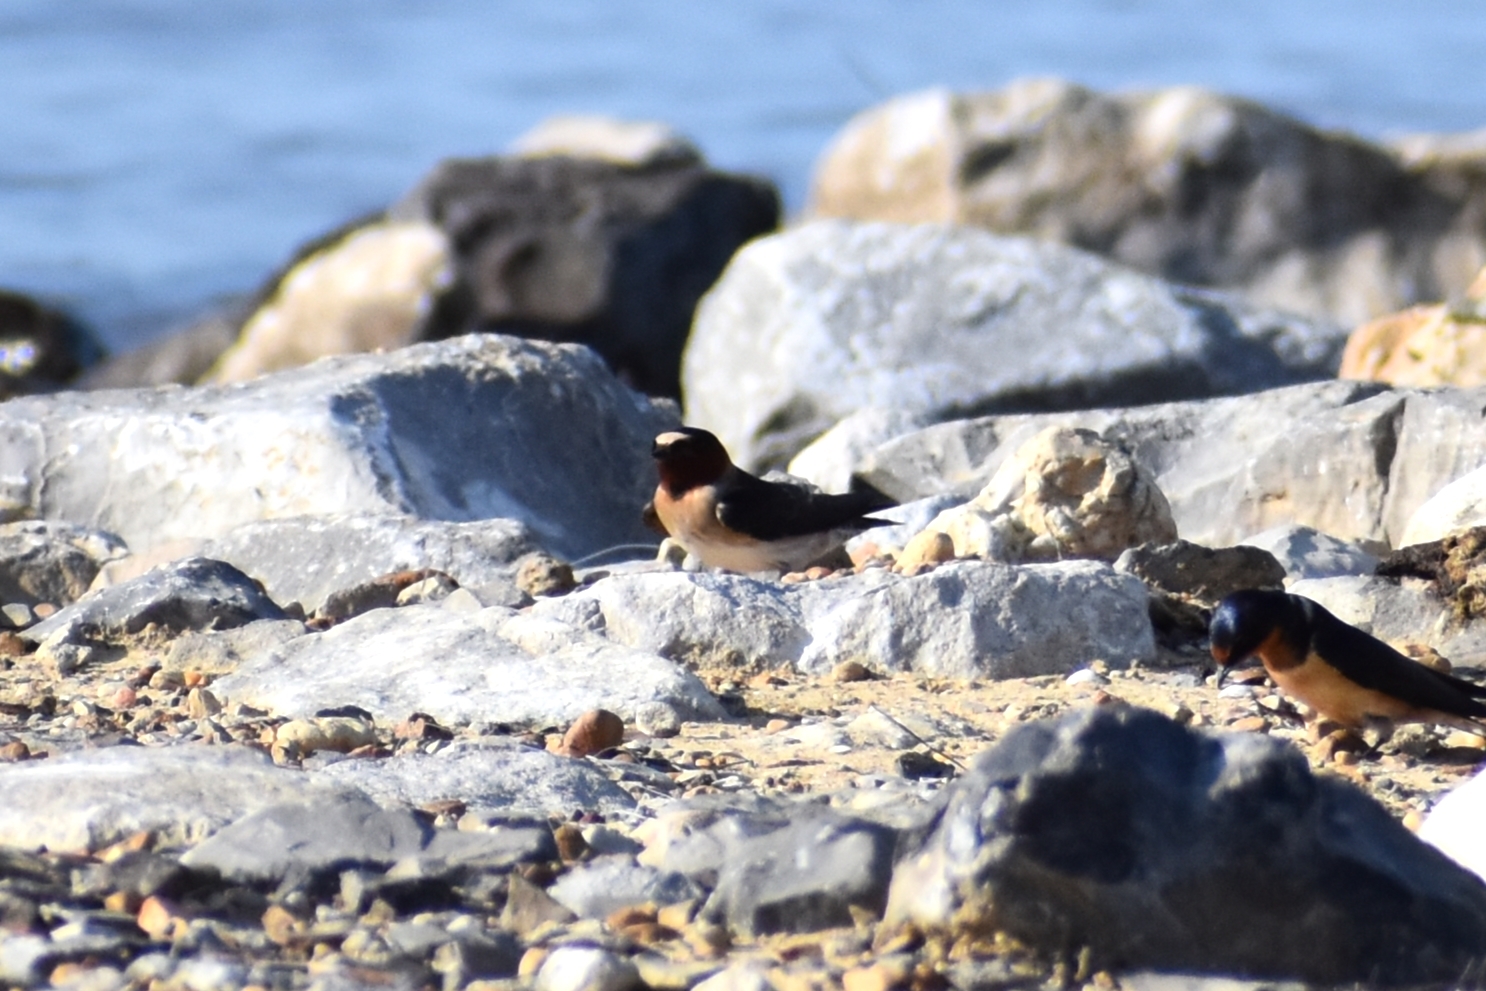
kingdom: Animalia
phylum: Chordata
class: Aves
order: Passeriformes
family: Hirundinidae
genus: Petrochelidon
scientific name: Petrochelidon pyrrhonota
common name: American cliff swallow
